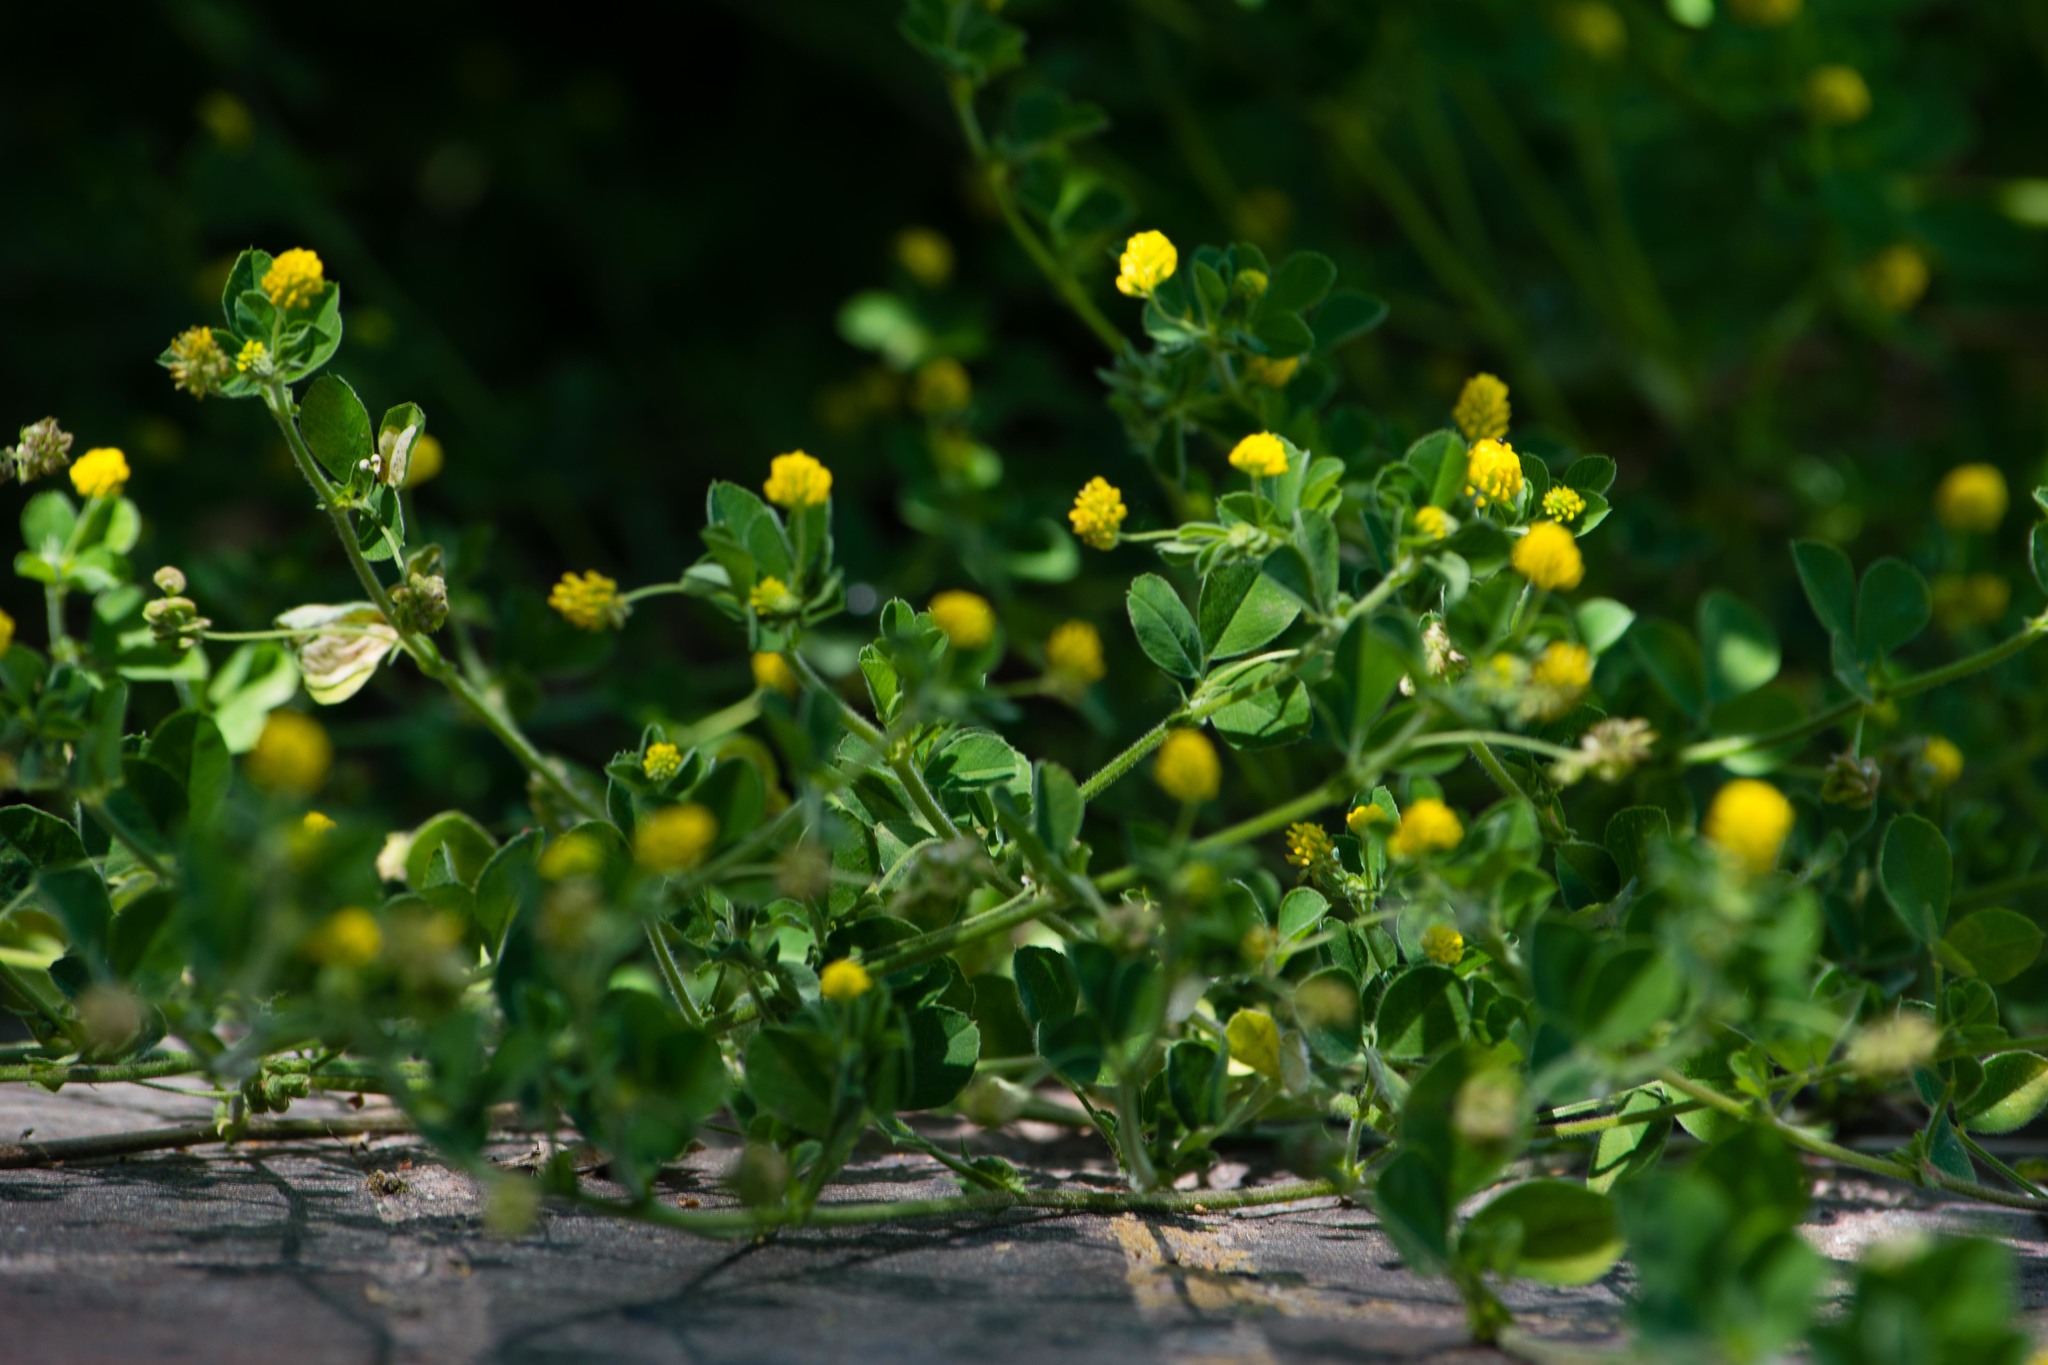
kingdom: Plantae
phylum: Tracheophyta
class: Magnoliopsida
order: Fabales
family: Fabaceae
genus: Medicago
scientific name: Medicago lupulina
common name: Black medick
